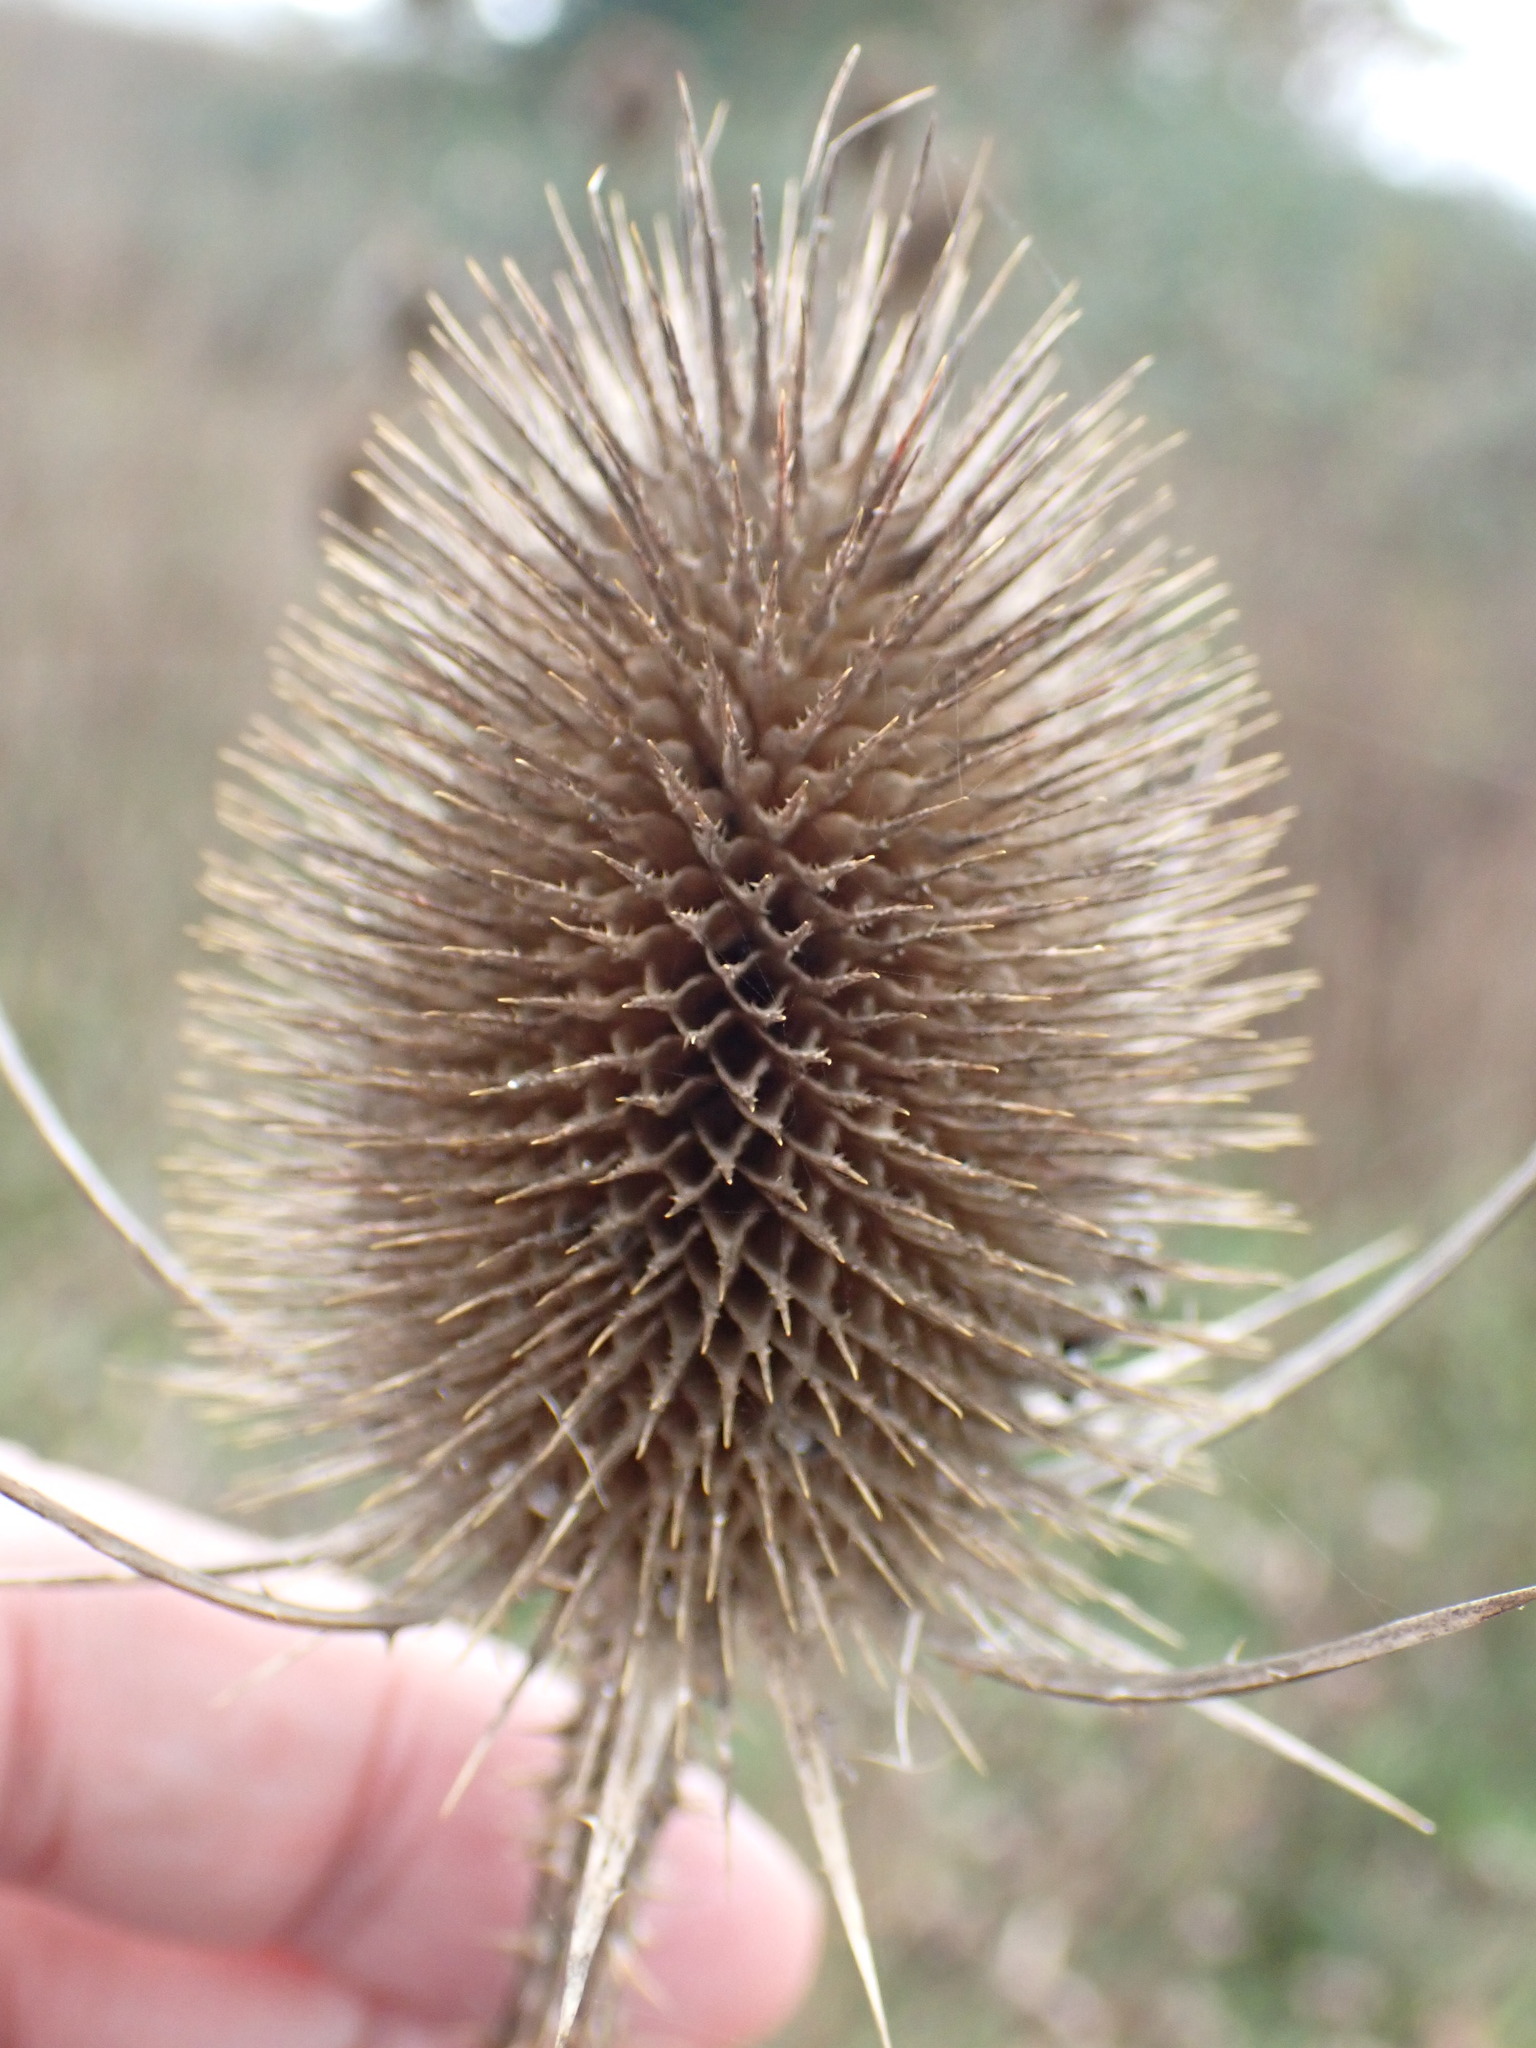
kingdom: Plantae
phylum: Tracheophyta
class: Magnoliopsida
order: Dipsacales
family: Caprifoliaceae
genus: Dipsacus
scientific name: Dipsacus fullonum
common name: Teasel
